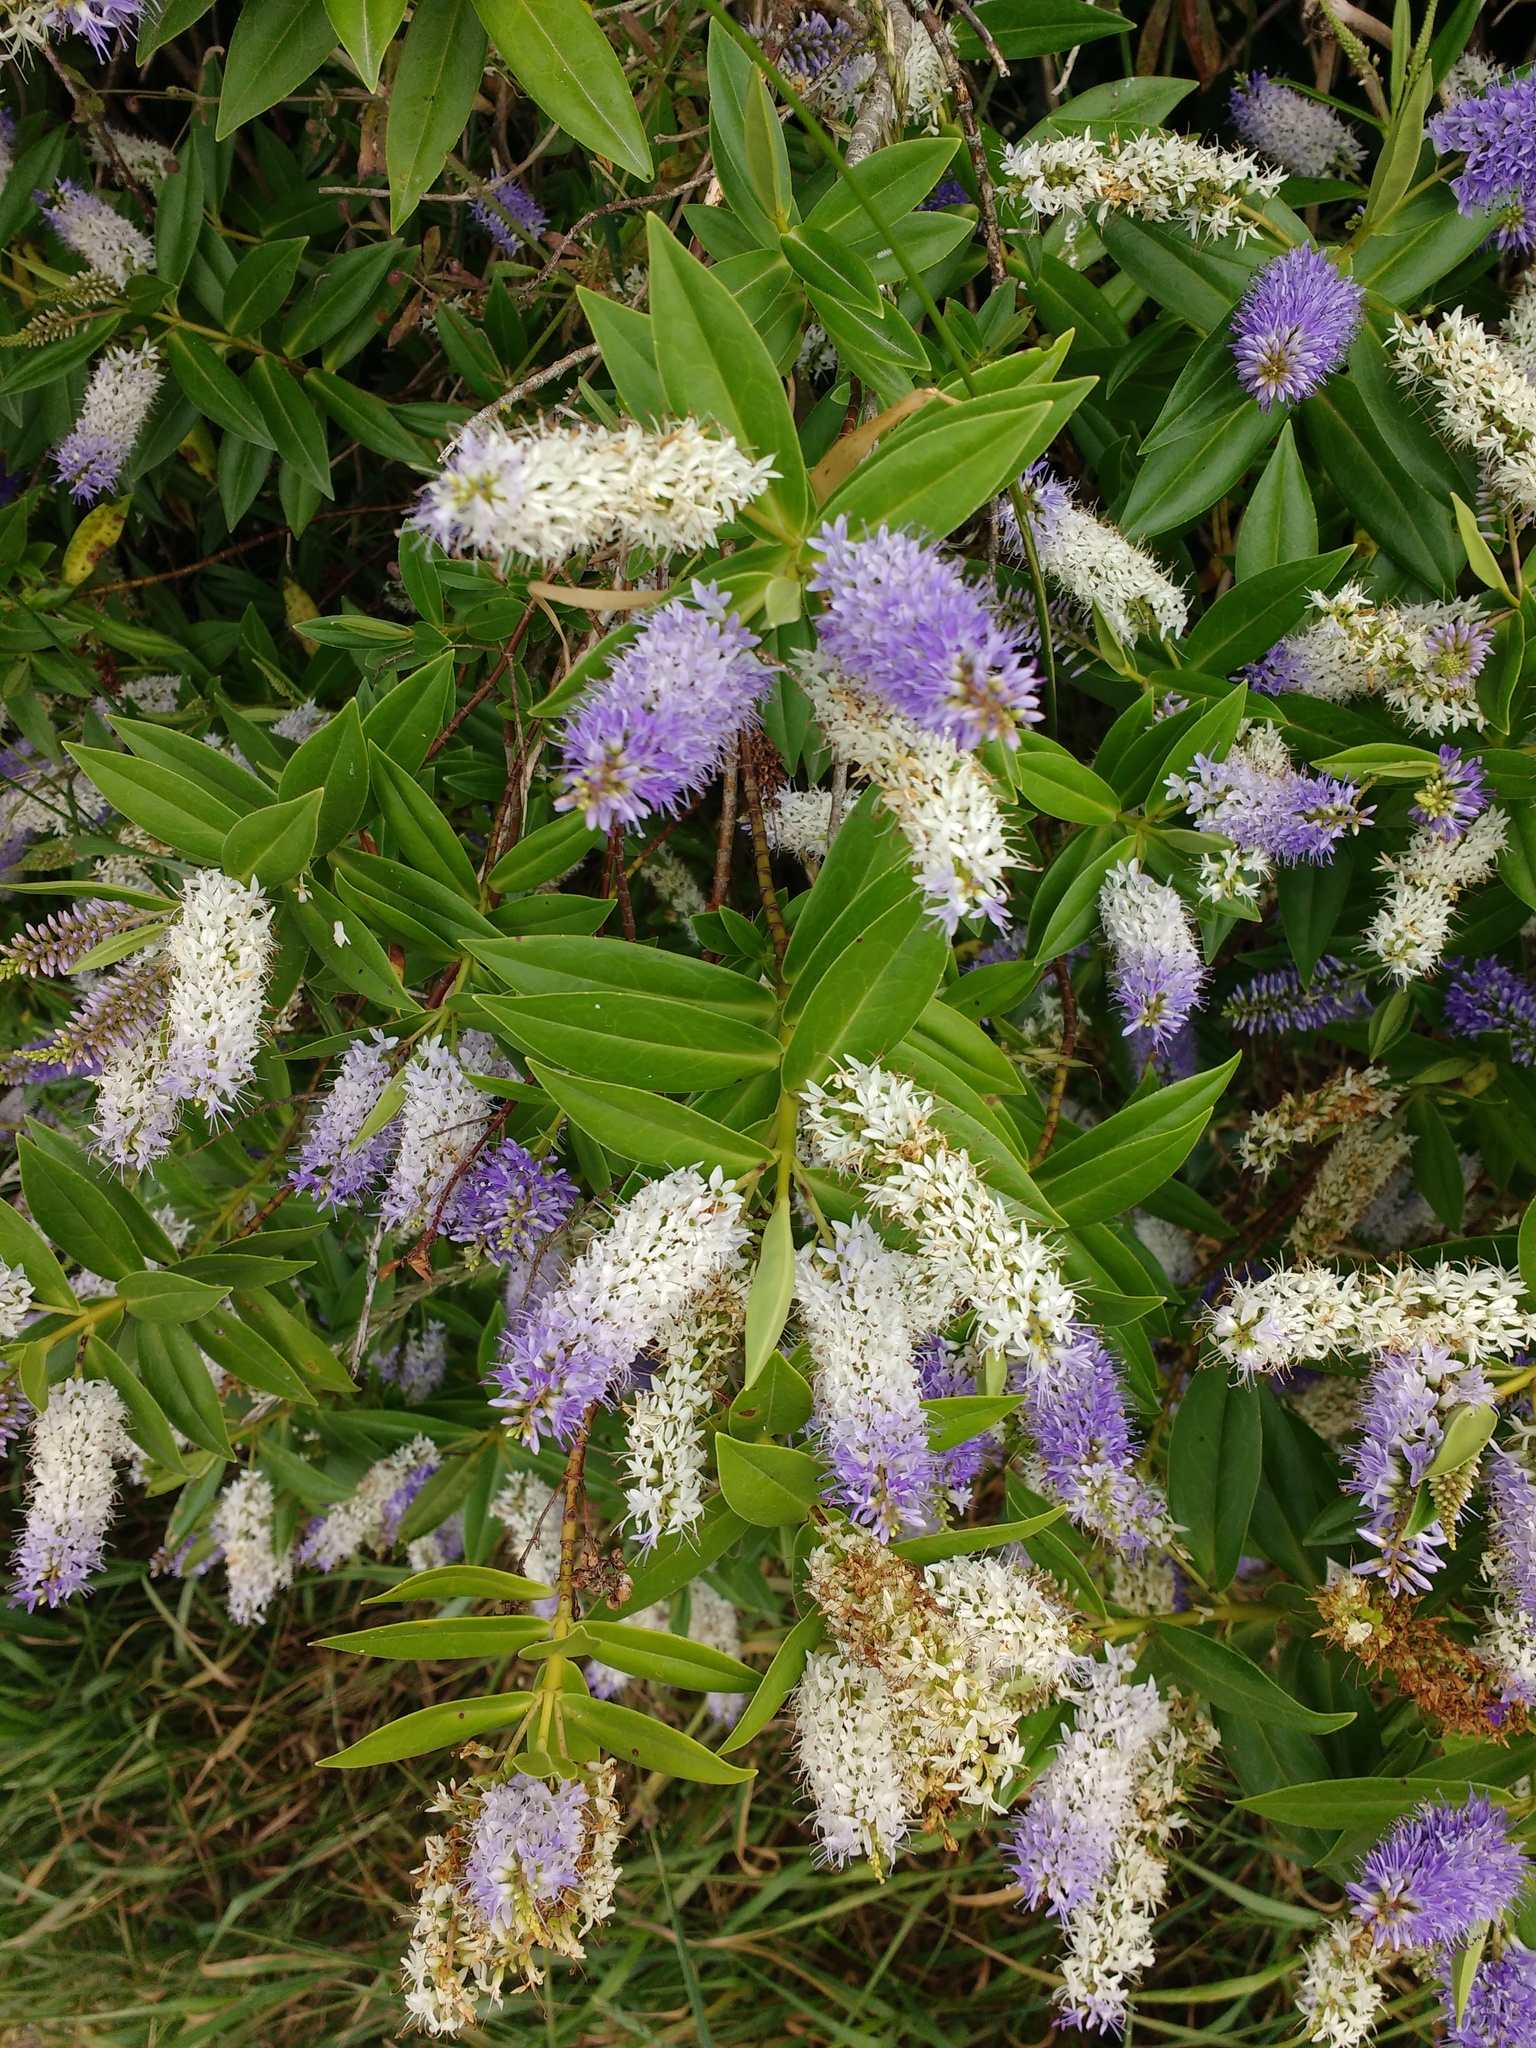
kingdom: Plantae
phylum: Tracheophyta
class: Magnoliopsida
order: Lamiales
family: Plantaginaceae
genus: Veronica
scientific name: Veronica
